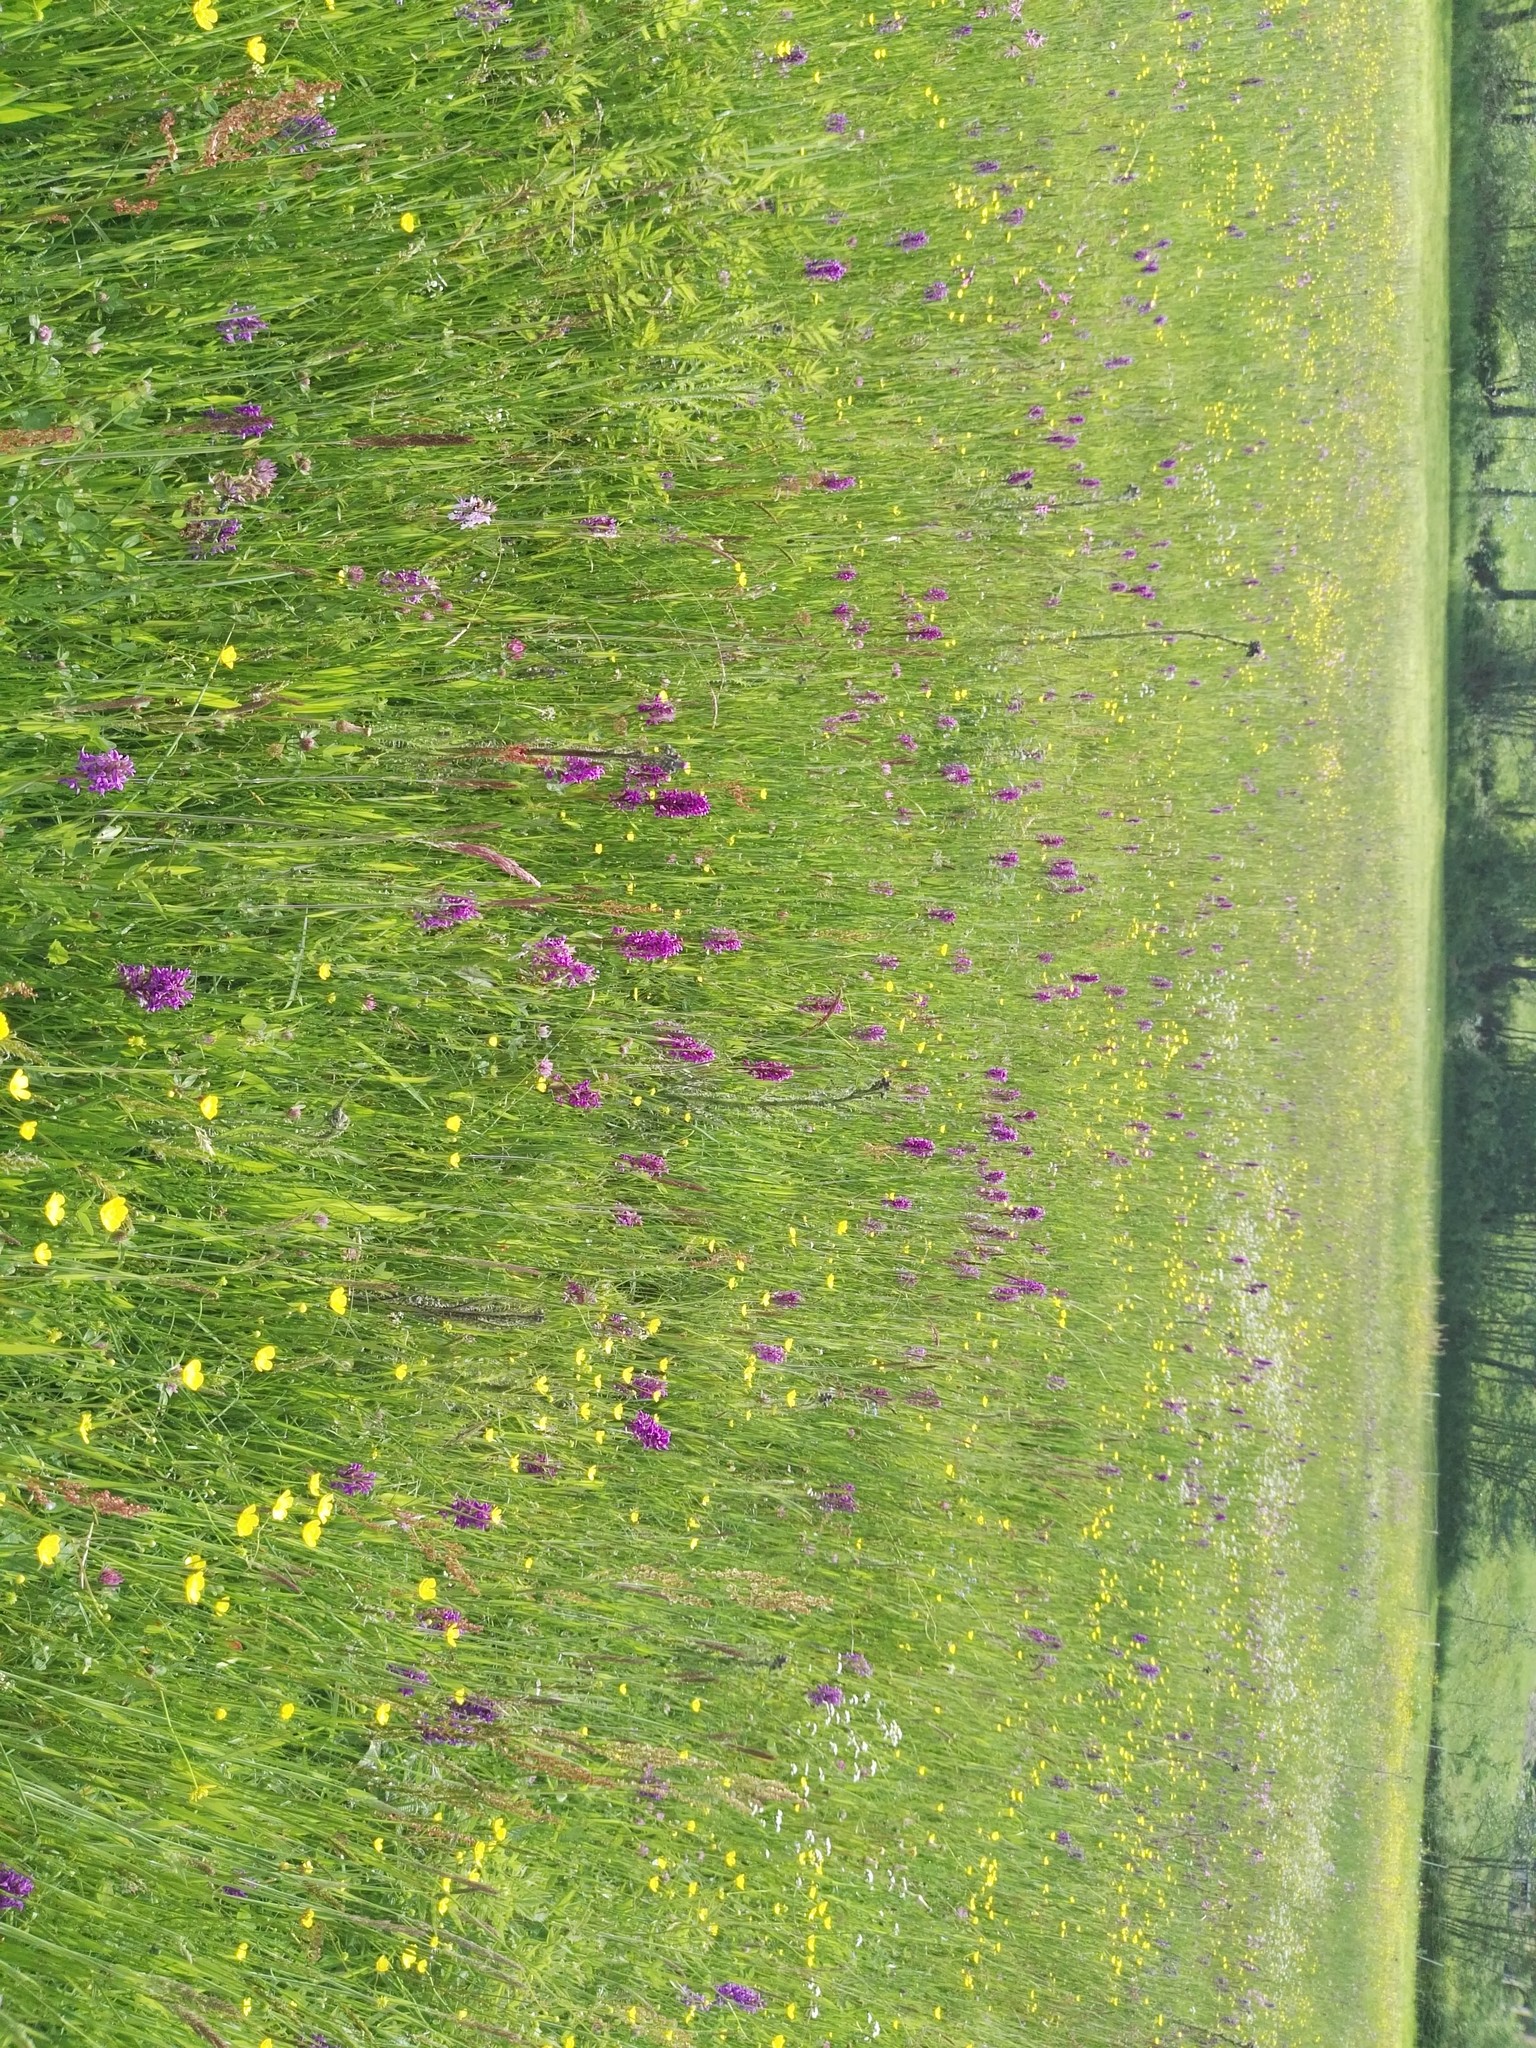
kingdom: Plantae
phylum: Tracheophyta
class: Liliopsida
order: Asparagales
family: Orchidaceae
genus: Dactylorhiza
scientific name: Dactylorhiza majalis
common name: Marsh orchid
